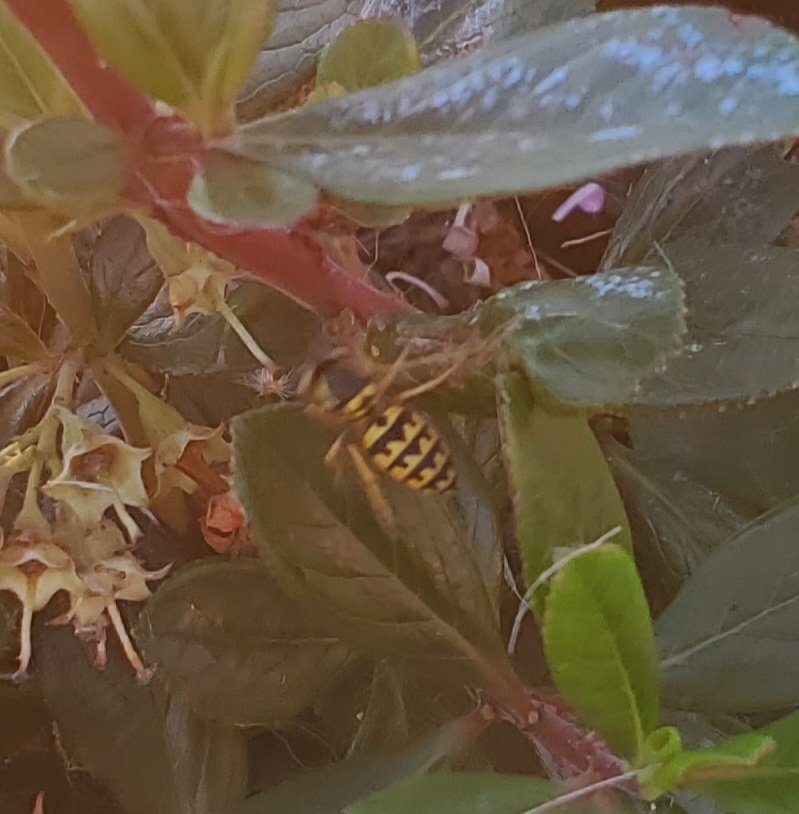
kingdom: Animalia
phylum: Arthropoda
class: Insecta
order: Hymenoptera
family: Vespidae
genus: Vespula
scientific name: Vespula pensylvanica
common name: Western yellowjacket
